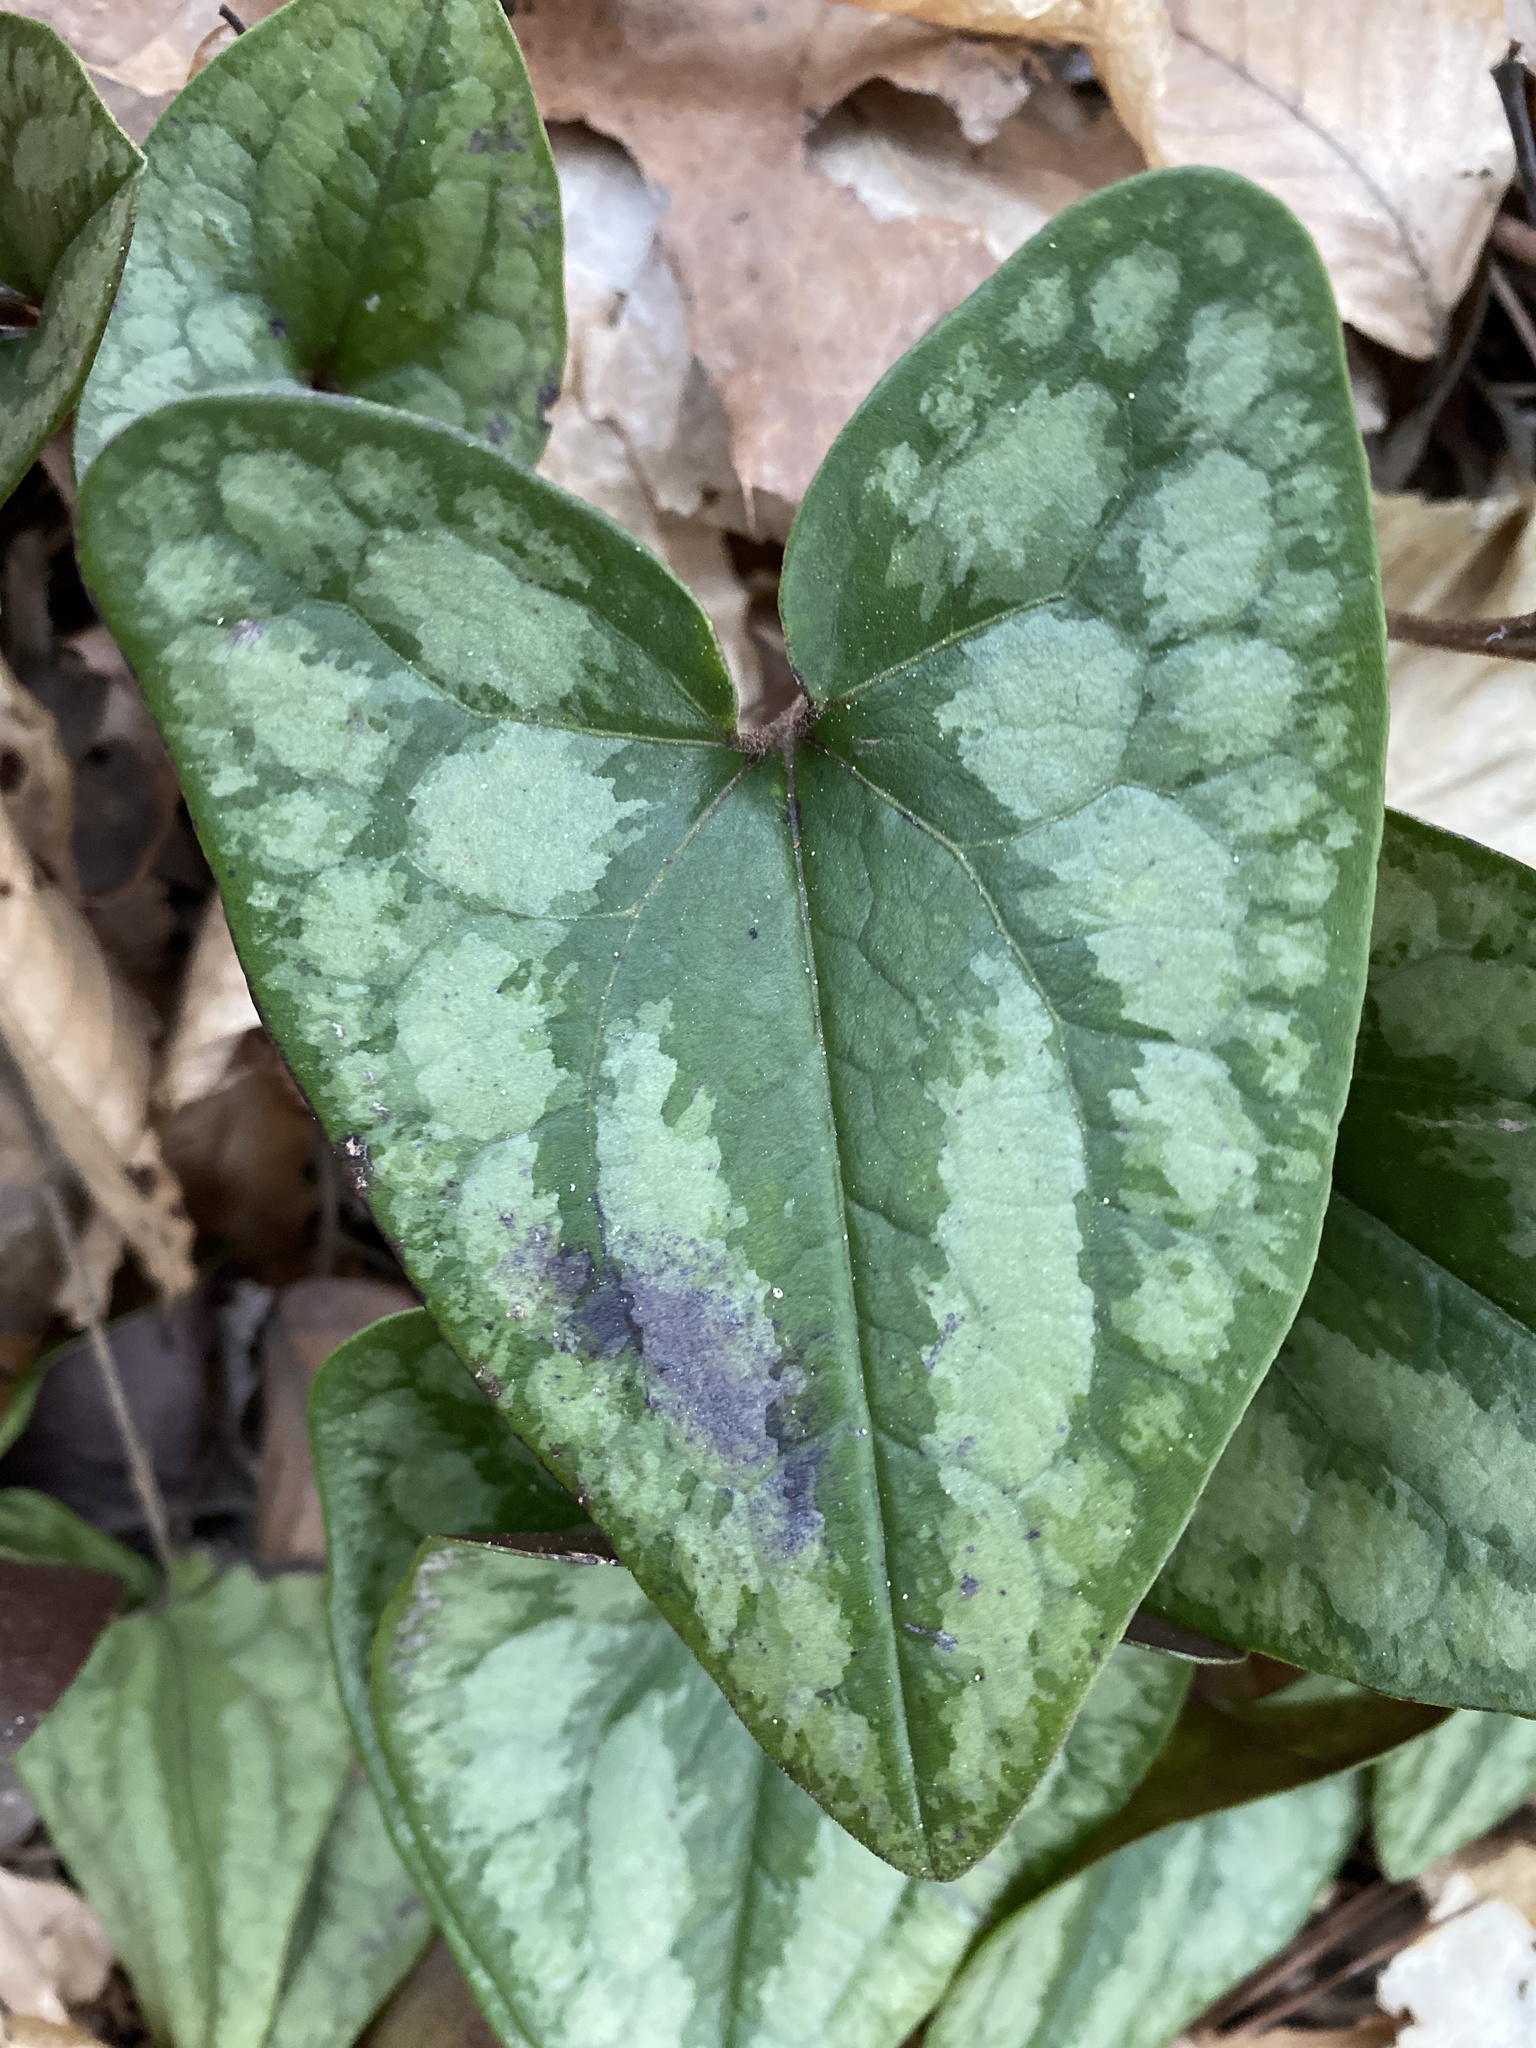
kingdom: Plantae
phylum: Tracheophyta
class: Magnoliopsida
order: Piperales
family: Aristolochiaceae
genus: Hexastylis
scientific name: Hexastylis arifolia
